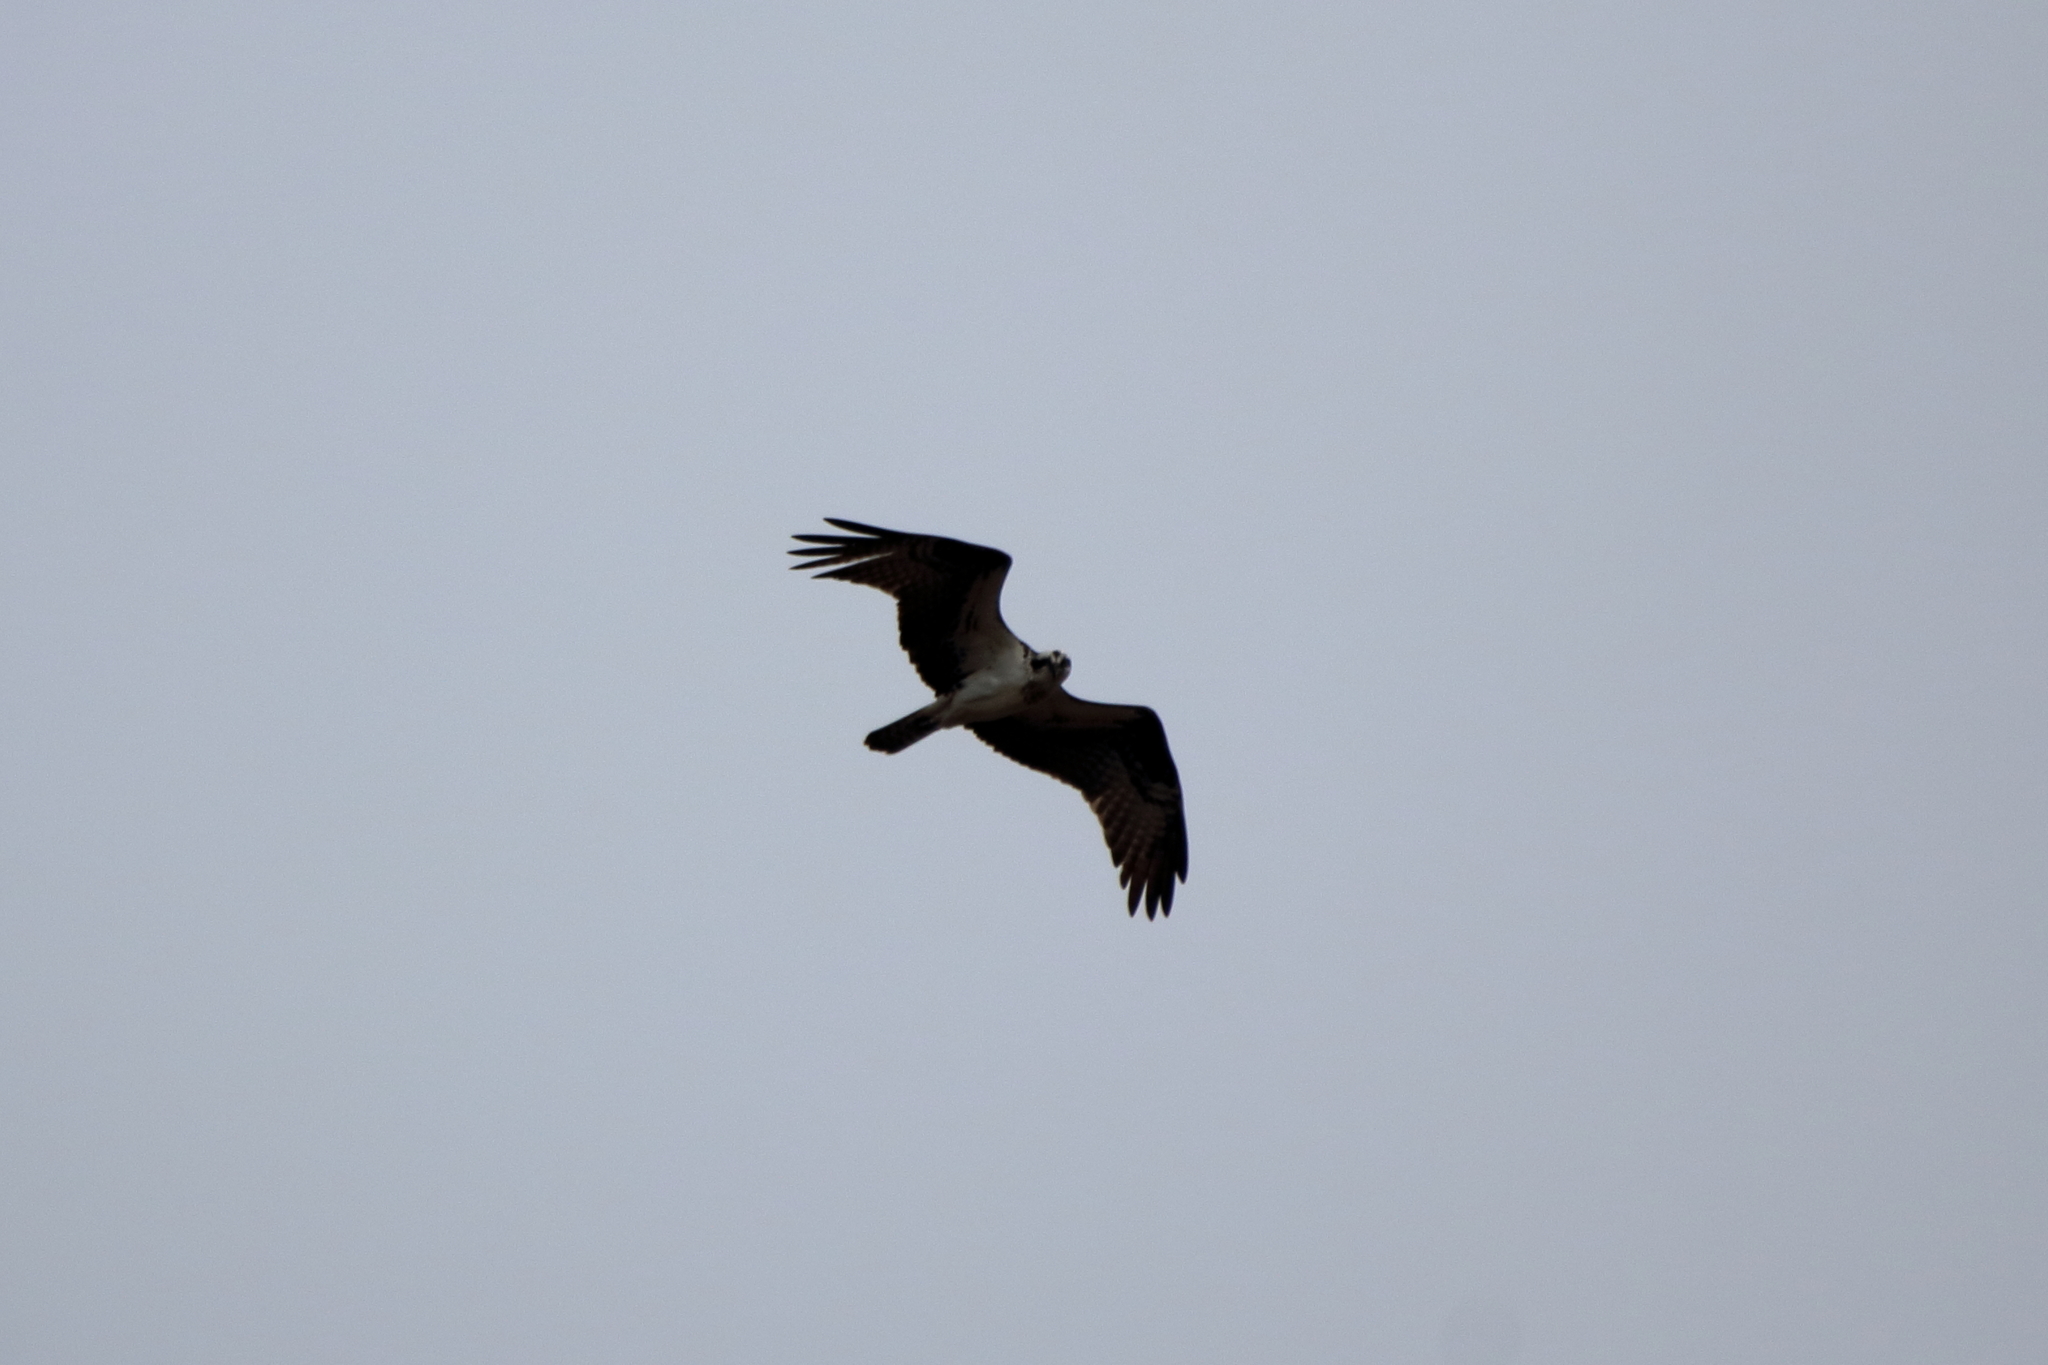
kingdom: Animalia
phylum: Chordata
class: Aves
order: Accipitriformes
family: Pandionidae
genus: Pandion
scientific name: Pandion haliaetus
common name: Osprey
